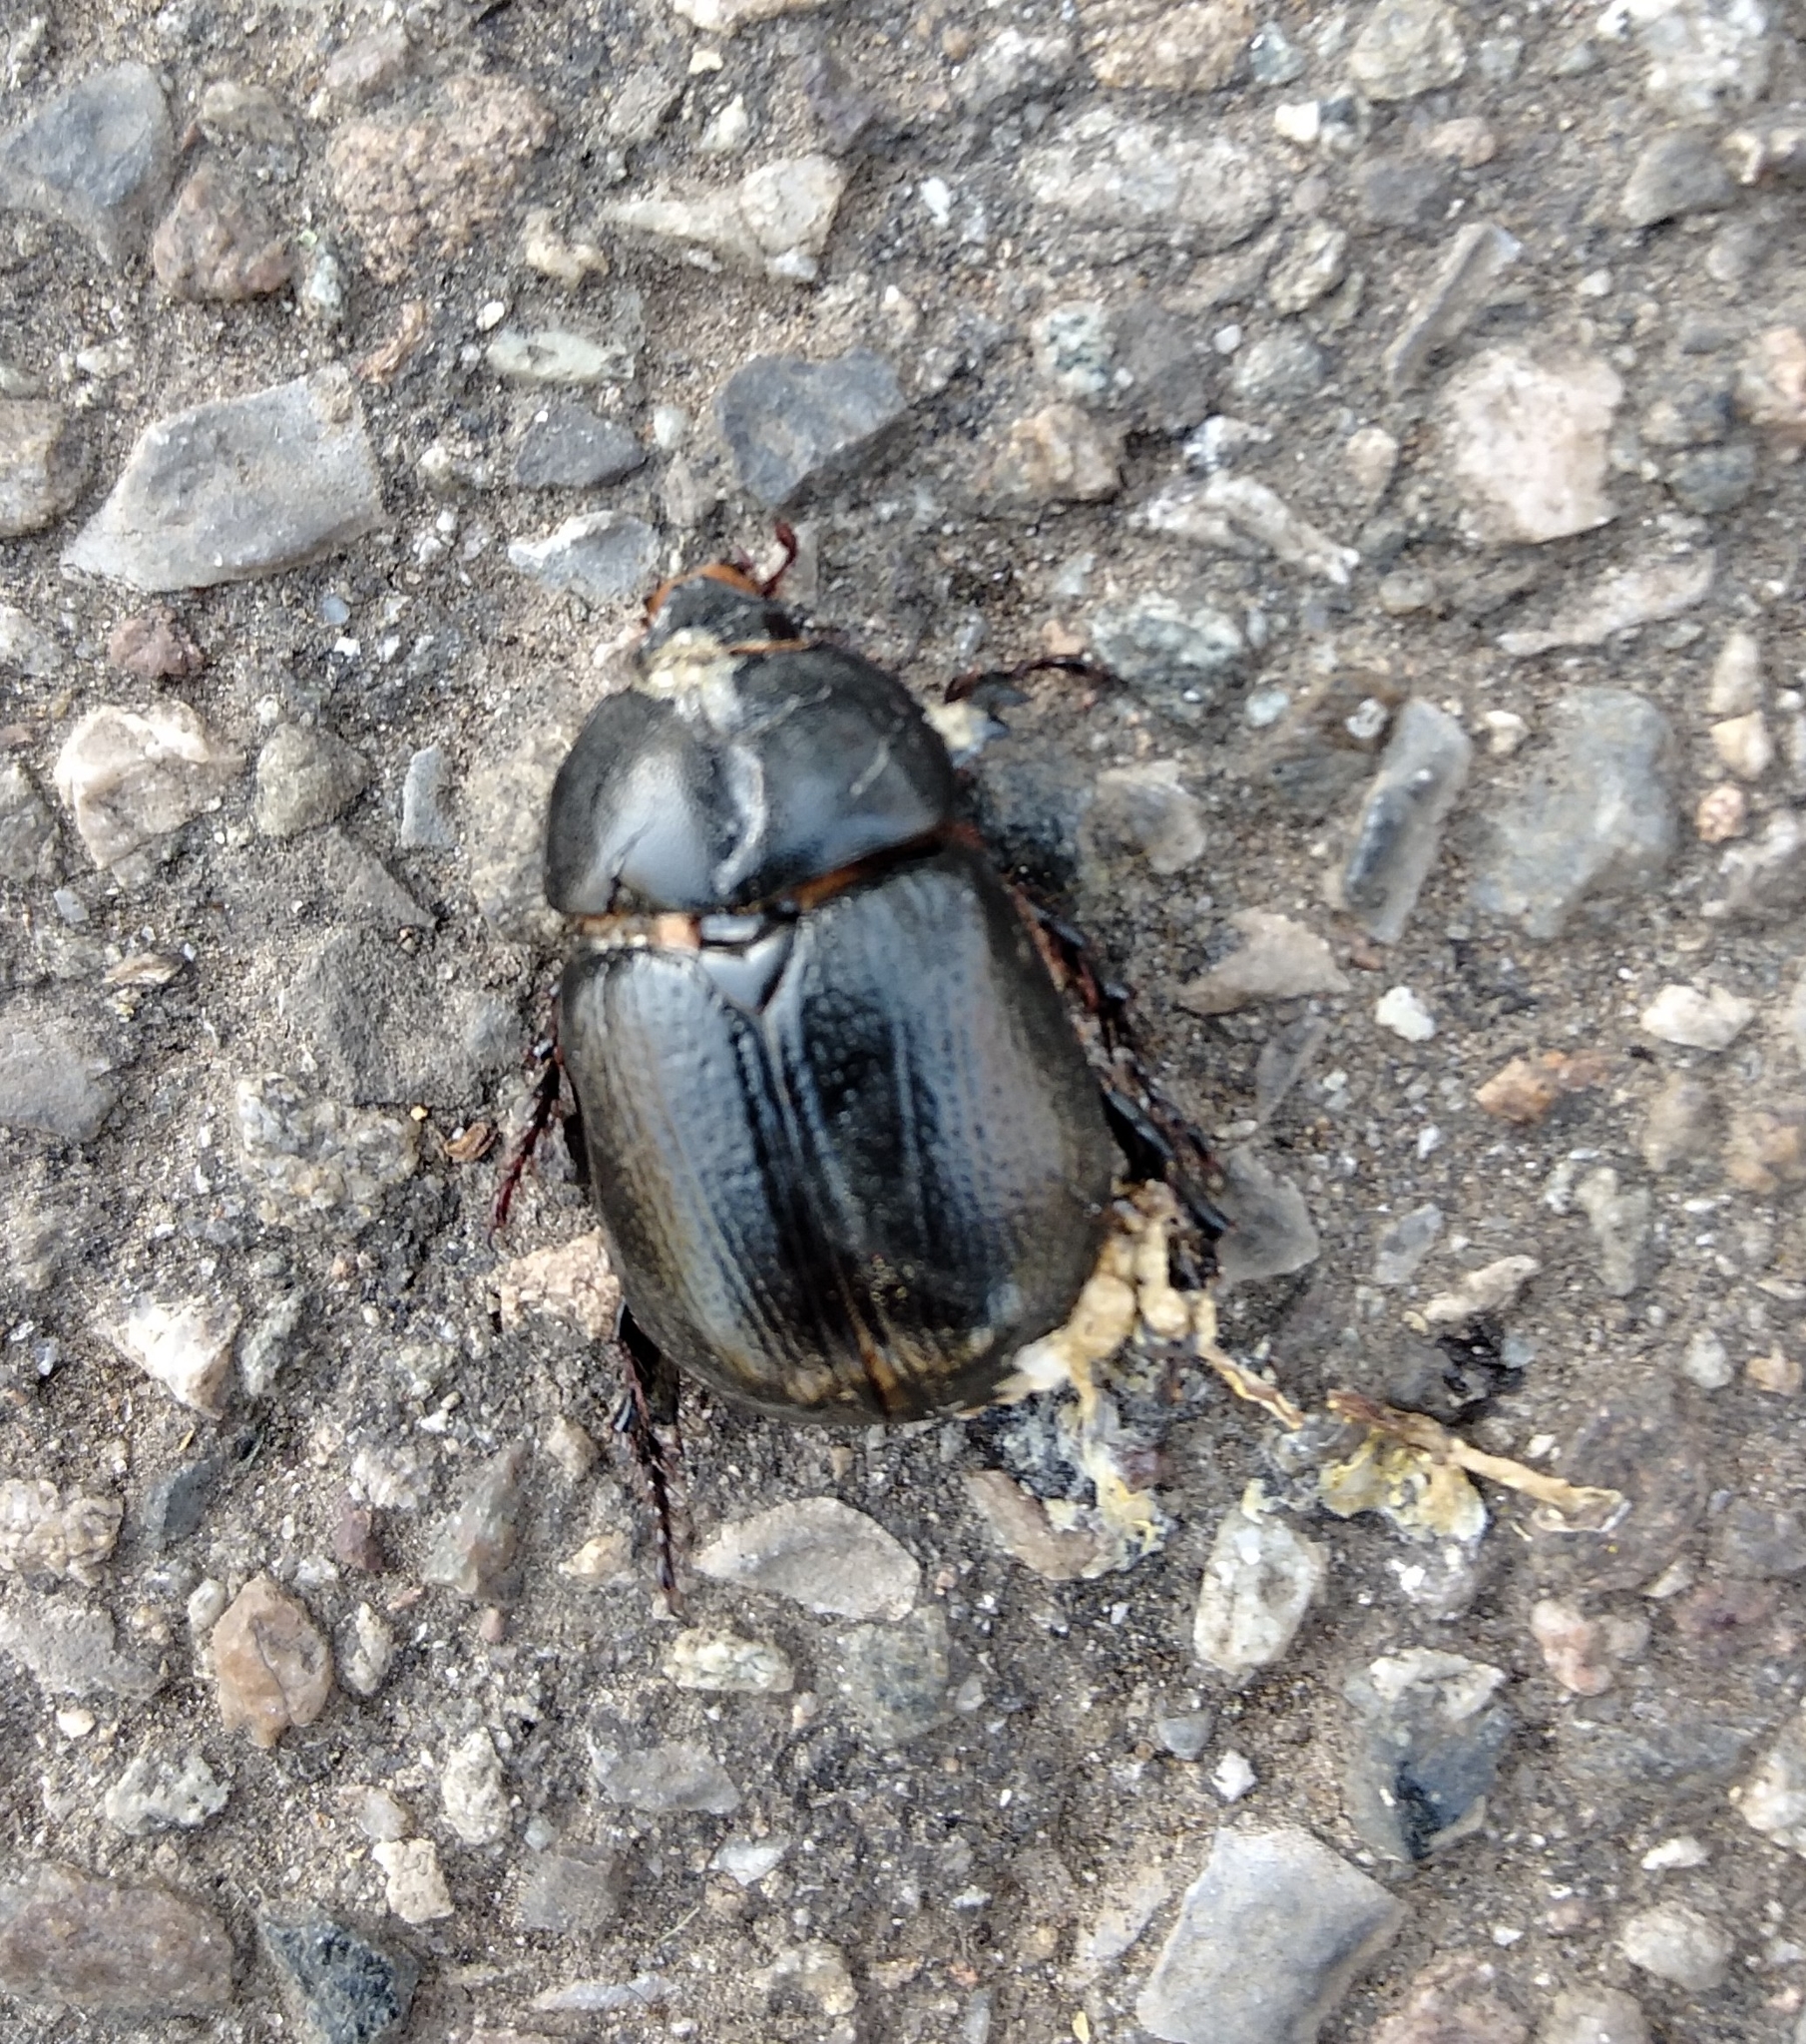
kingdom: Animalia
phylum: Arthropoda
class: Insecta
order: Coleoptera
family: Scarabaeidae
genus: Pentodon
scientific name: Pentodon bidens
